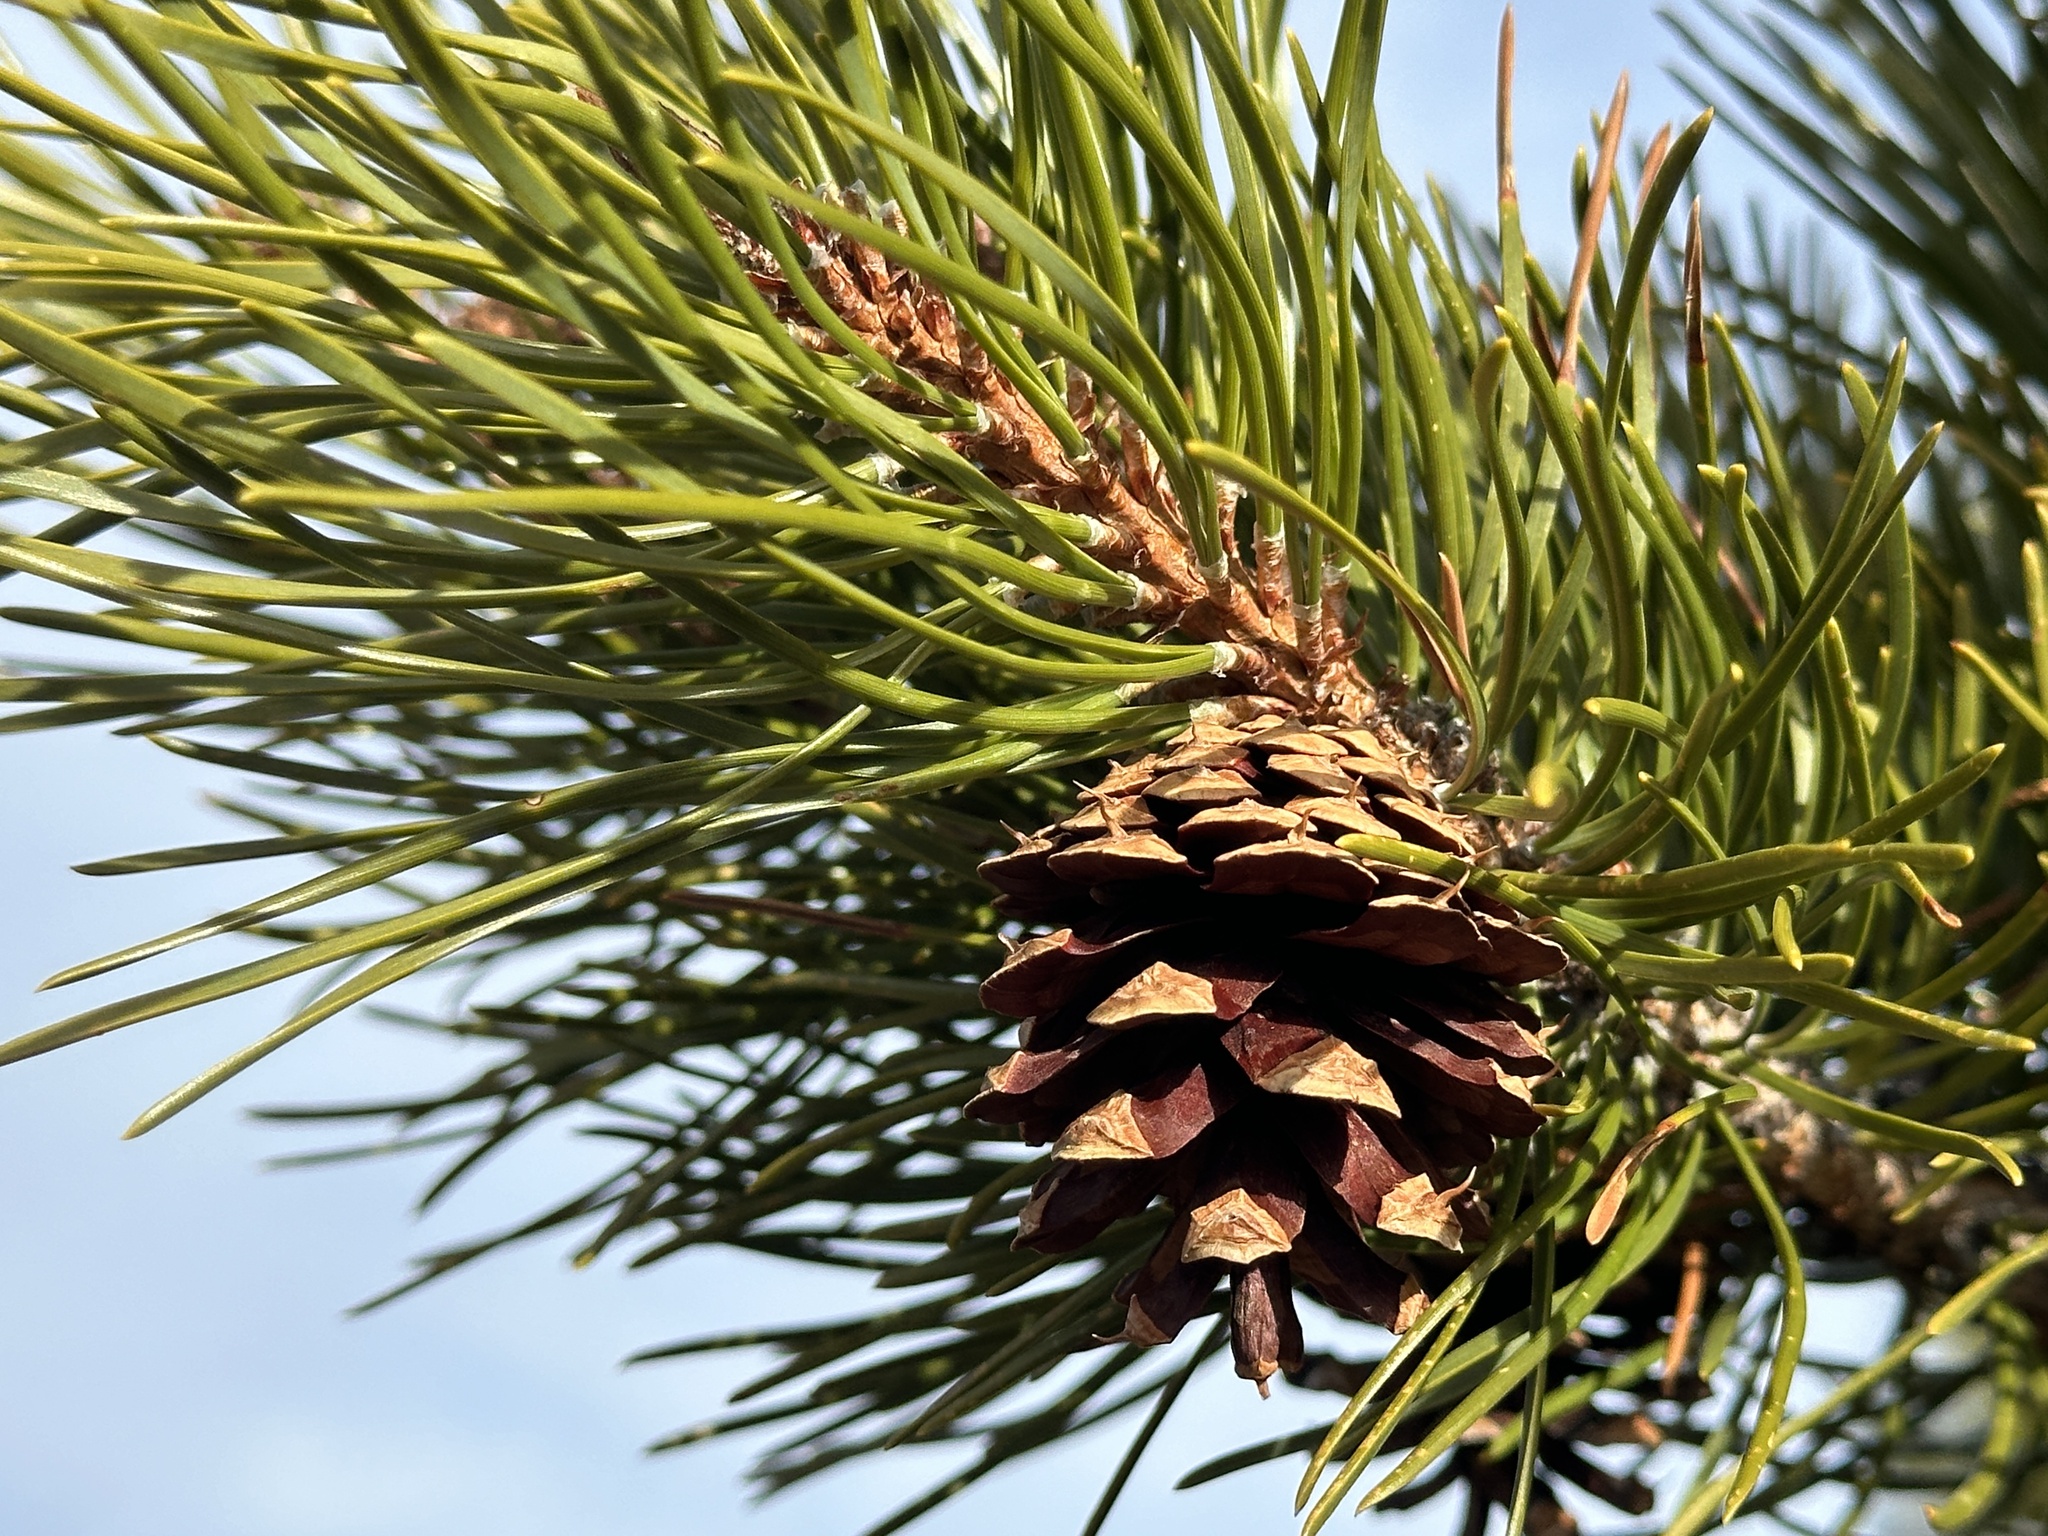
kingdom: Plantae
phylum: Tracheophyta
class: Pinopsida
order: Pinales
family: Pinaceae
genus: Pinus
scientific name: Pinus contorta
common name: Lodgepole pine
